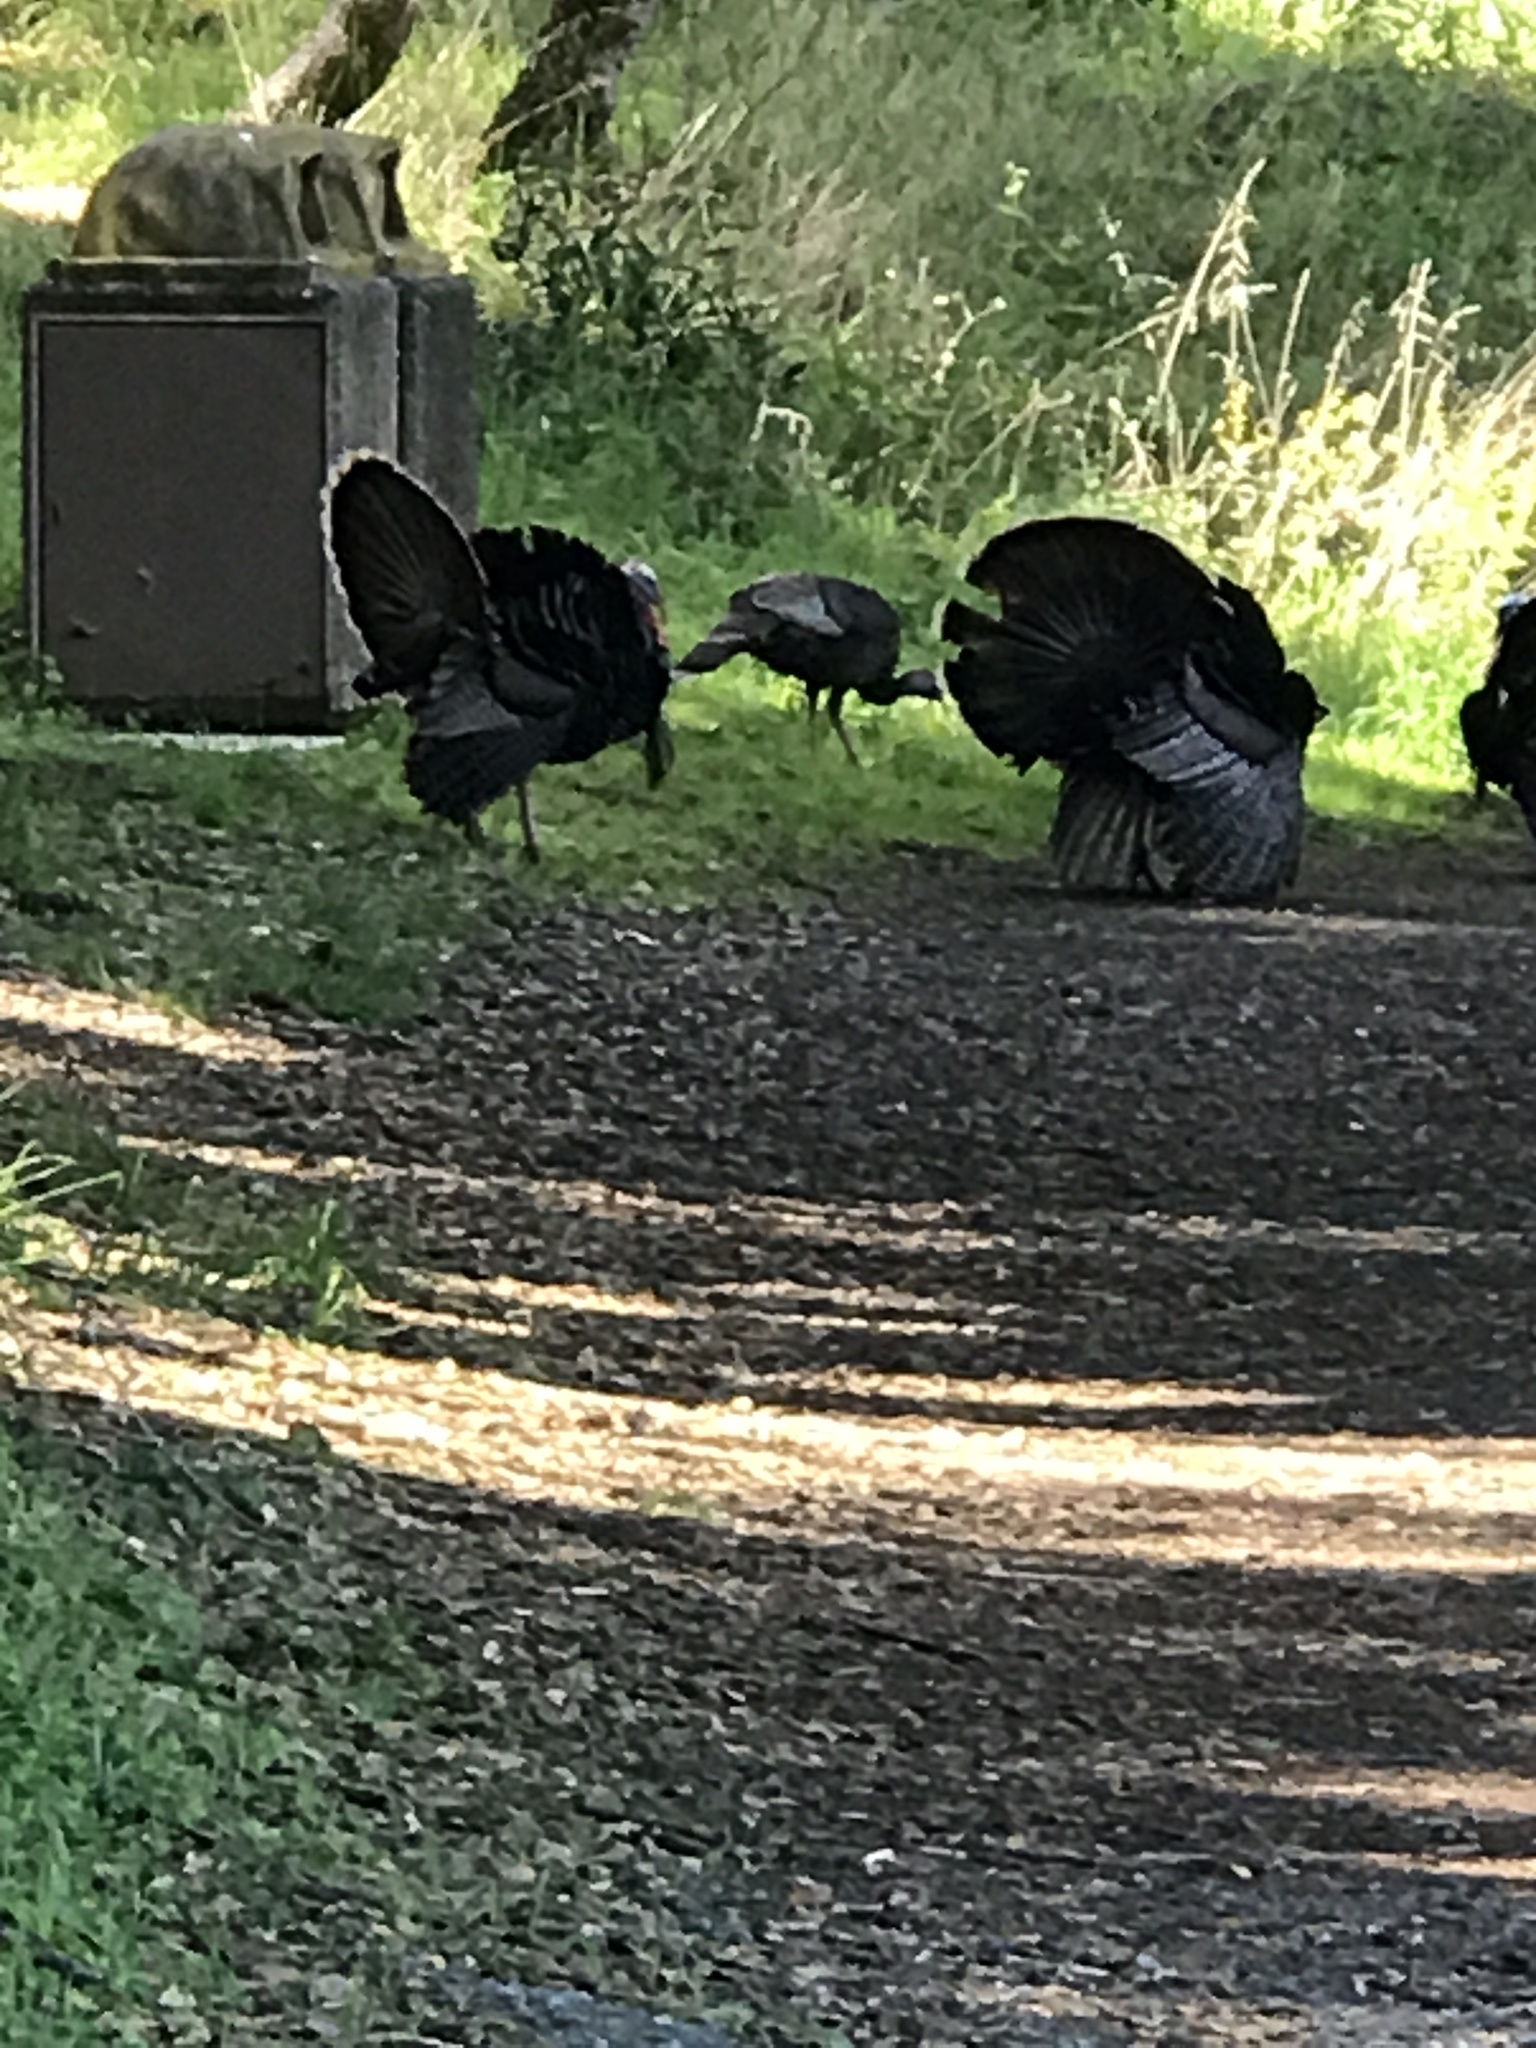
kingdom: Animalia
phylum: Chordata
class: Aves
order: Galliformes
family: Phasianidae
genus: Meleagris
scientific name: Meleagris gallopavo
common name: Wild turkey
